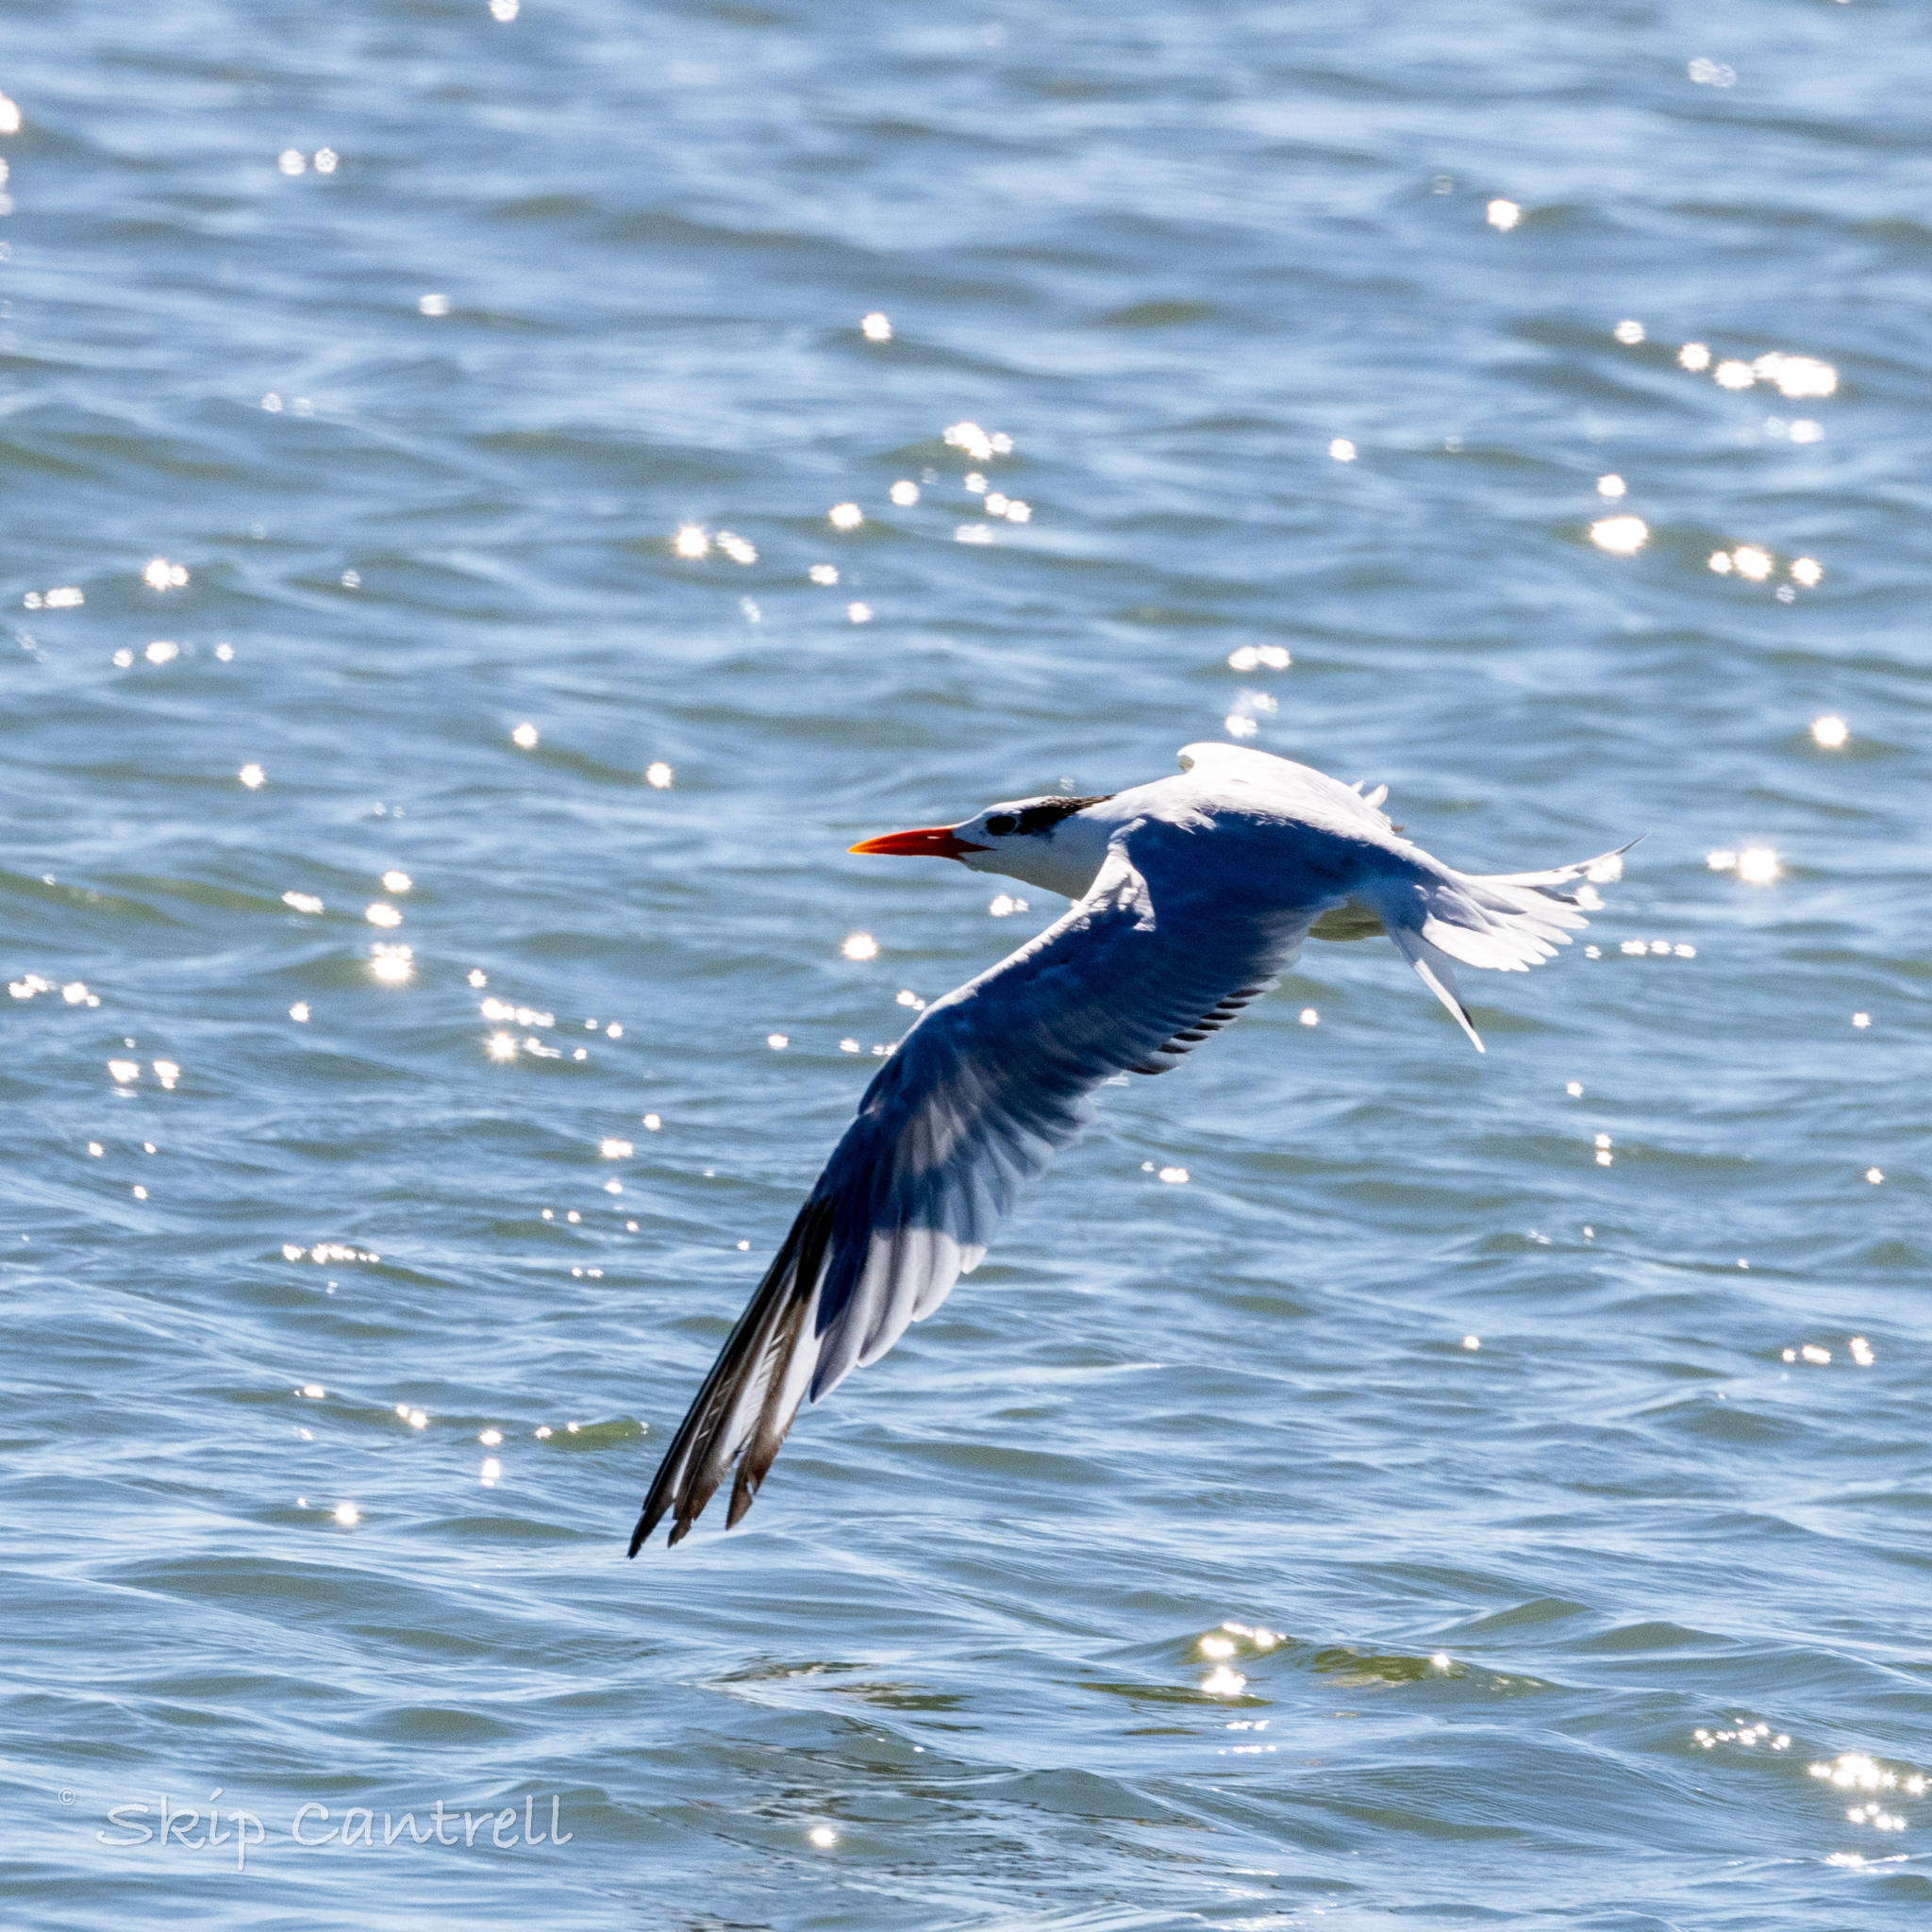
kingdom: Animalia
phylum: Chordata
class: Aves
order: Charadriiformes
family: Laridae
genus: Thalasseus
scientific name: Thalasseus maximus
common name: Royal tern
